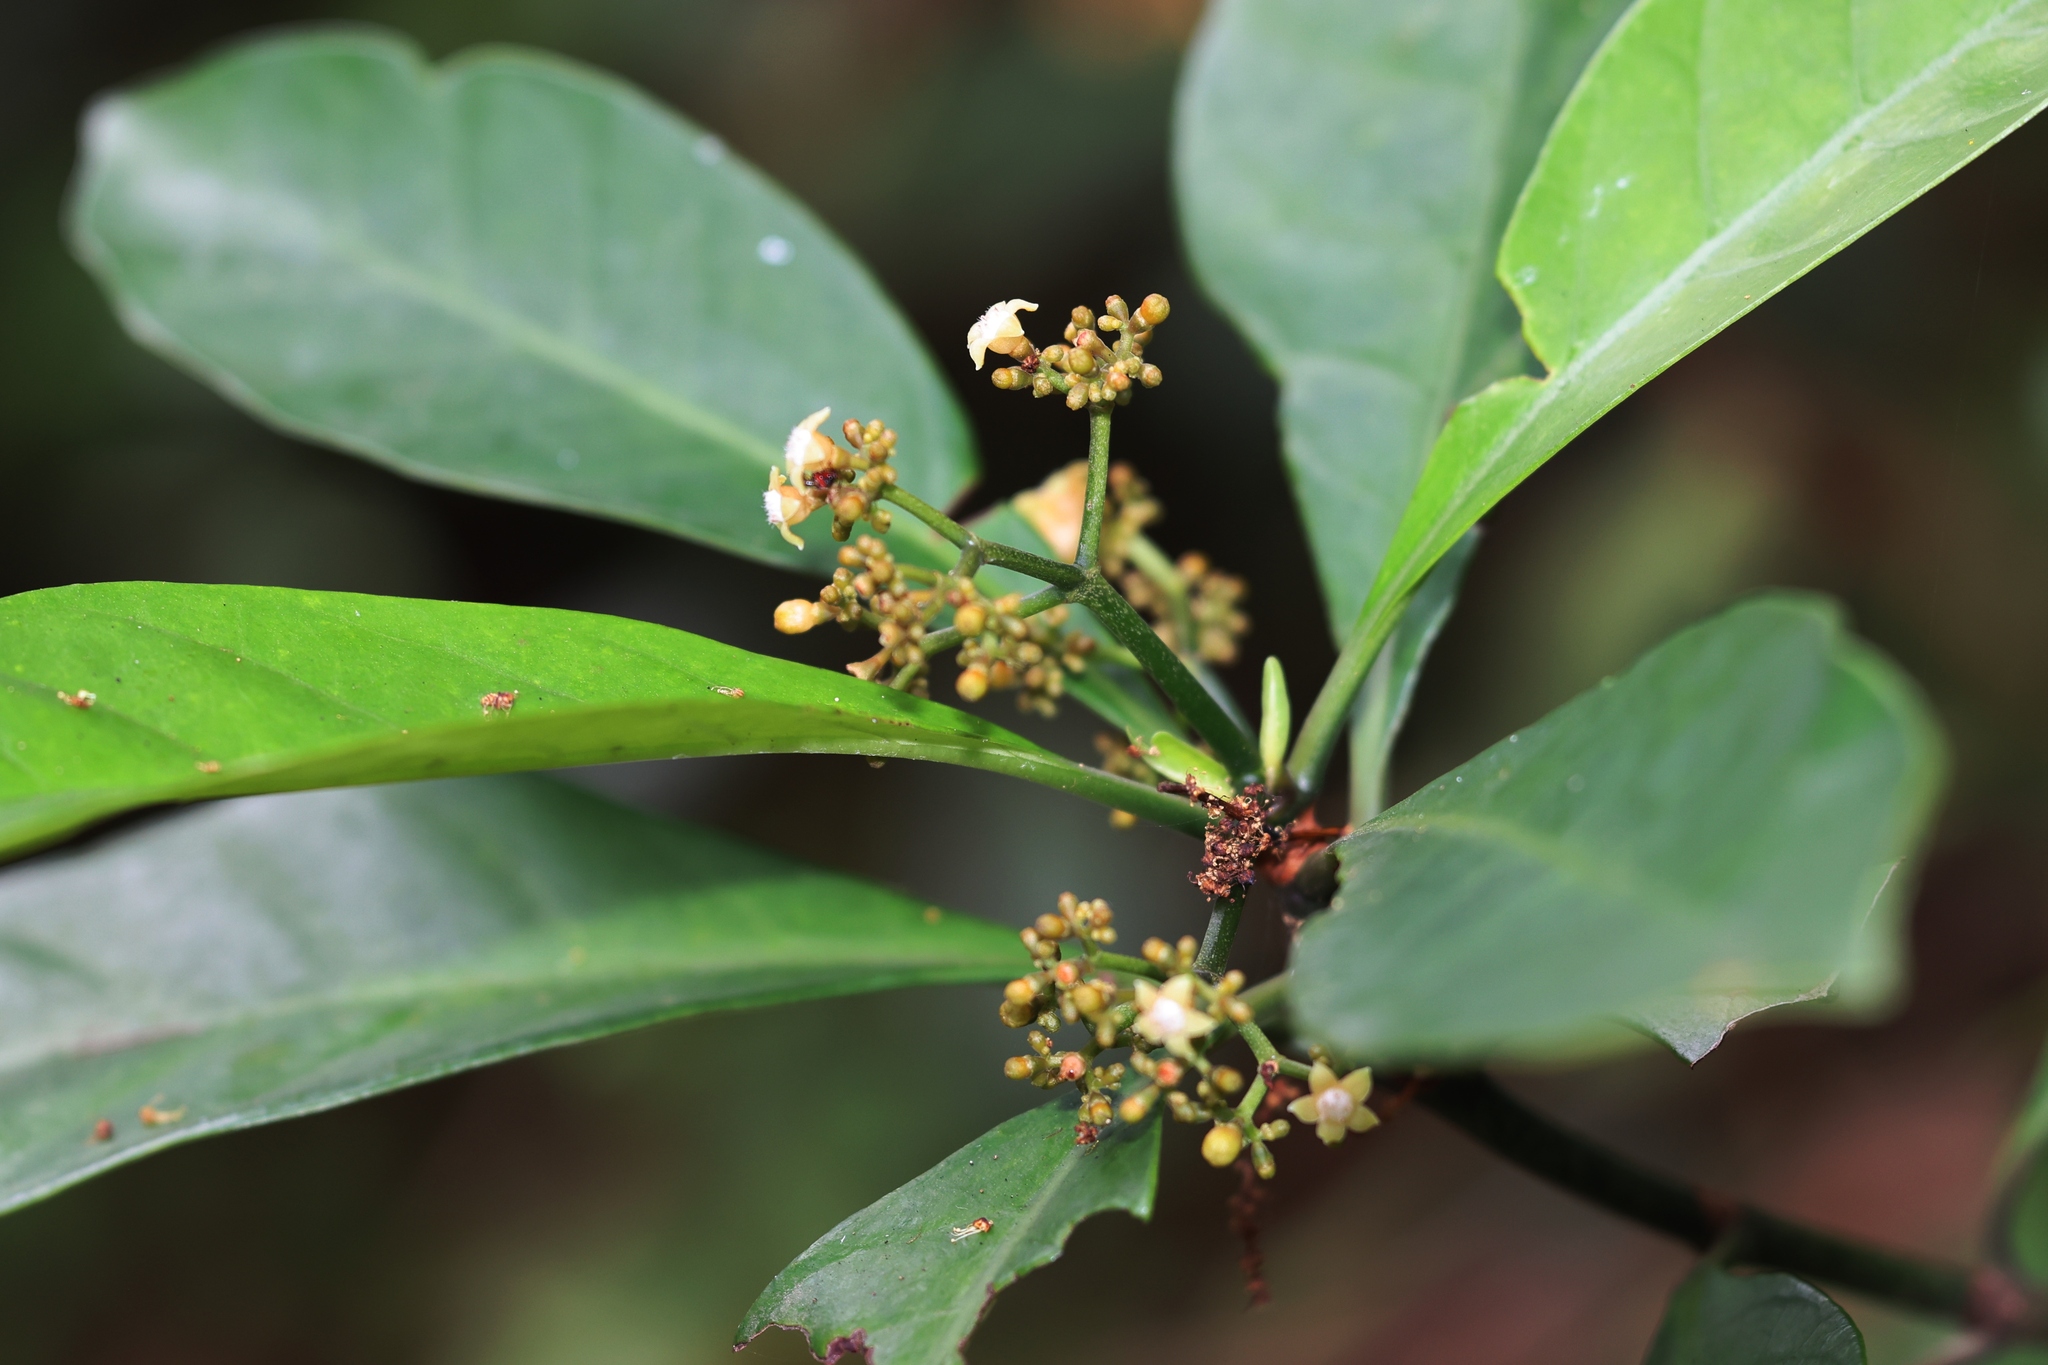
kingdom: Plantae
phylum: Tracheophyta
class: Magnoliopsida
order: Gentianales
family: Rubiaceae
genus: Psychotria
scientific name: Psychotria asiatica
